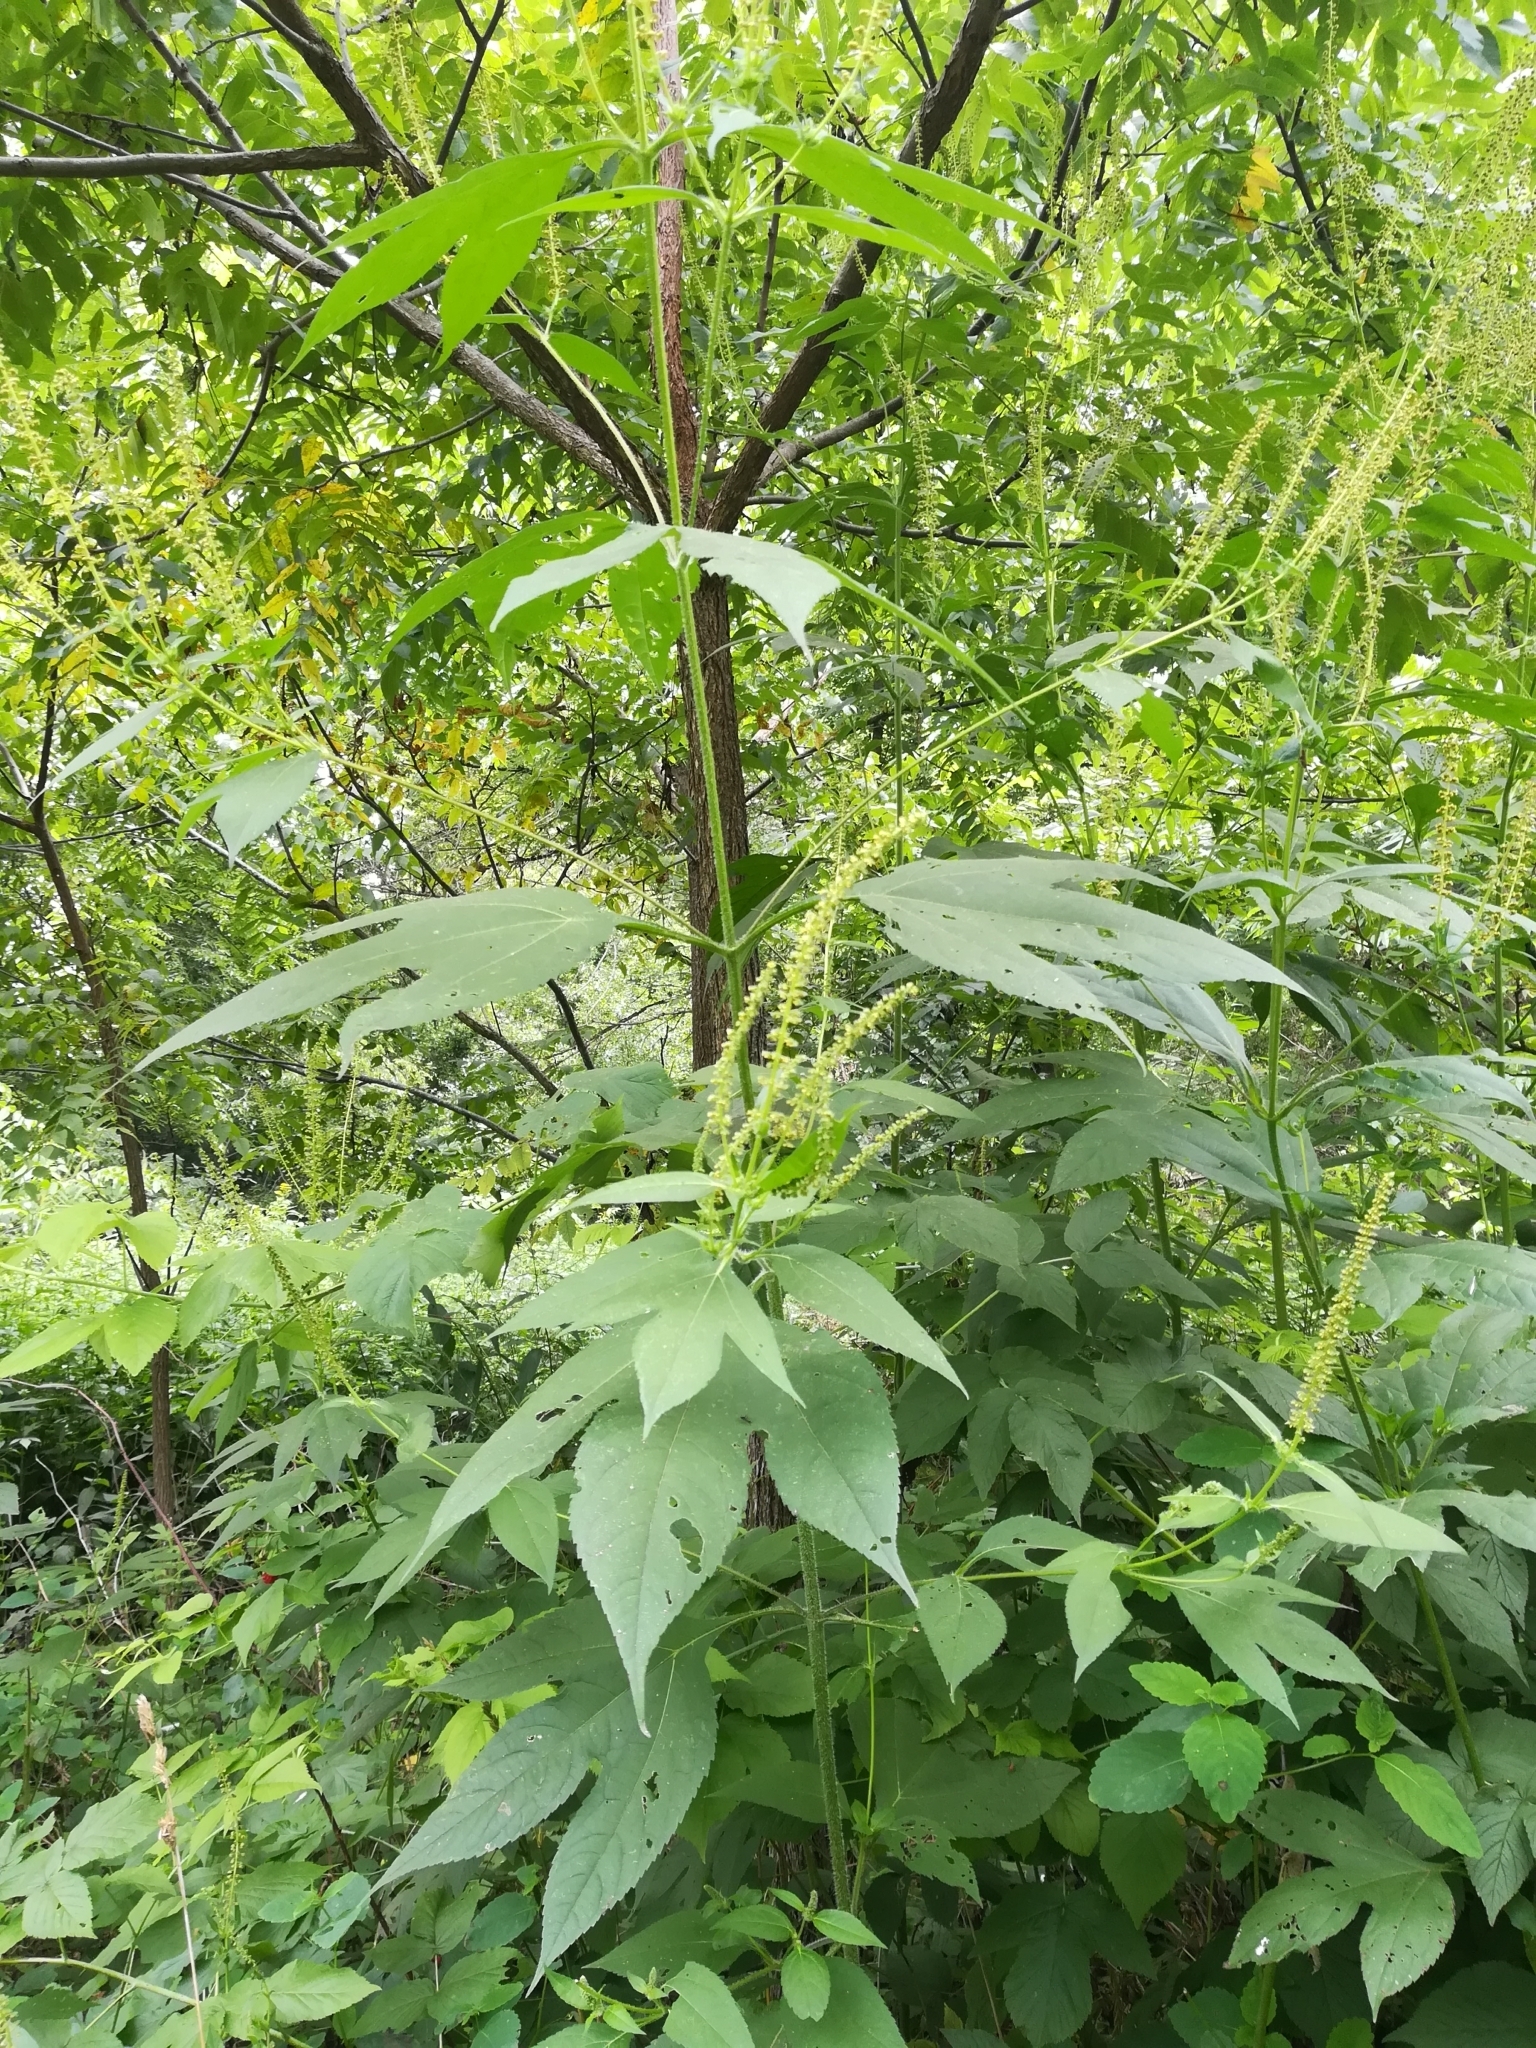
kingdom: Plantae
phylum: Tracheophyta
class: Magnoliopsida
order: Asterales
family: Asteraceae
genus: Ambrosia
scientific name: Ambrosia trifida
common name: Giant ragweed
